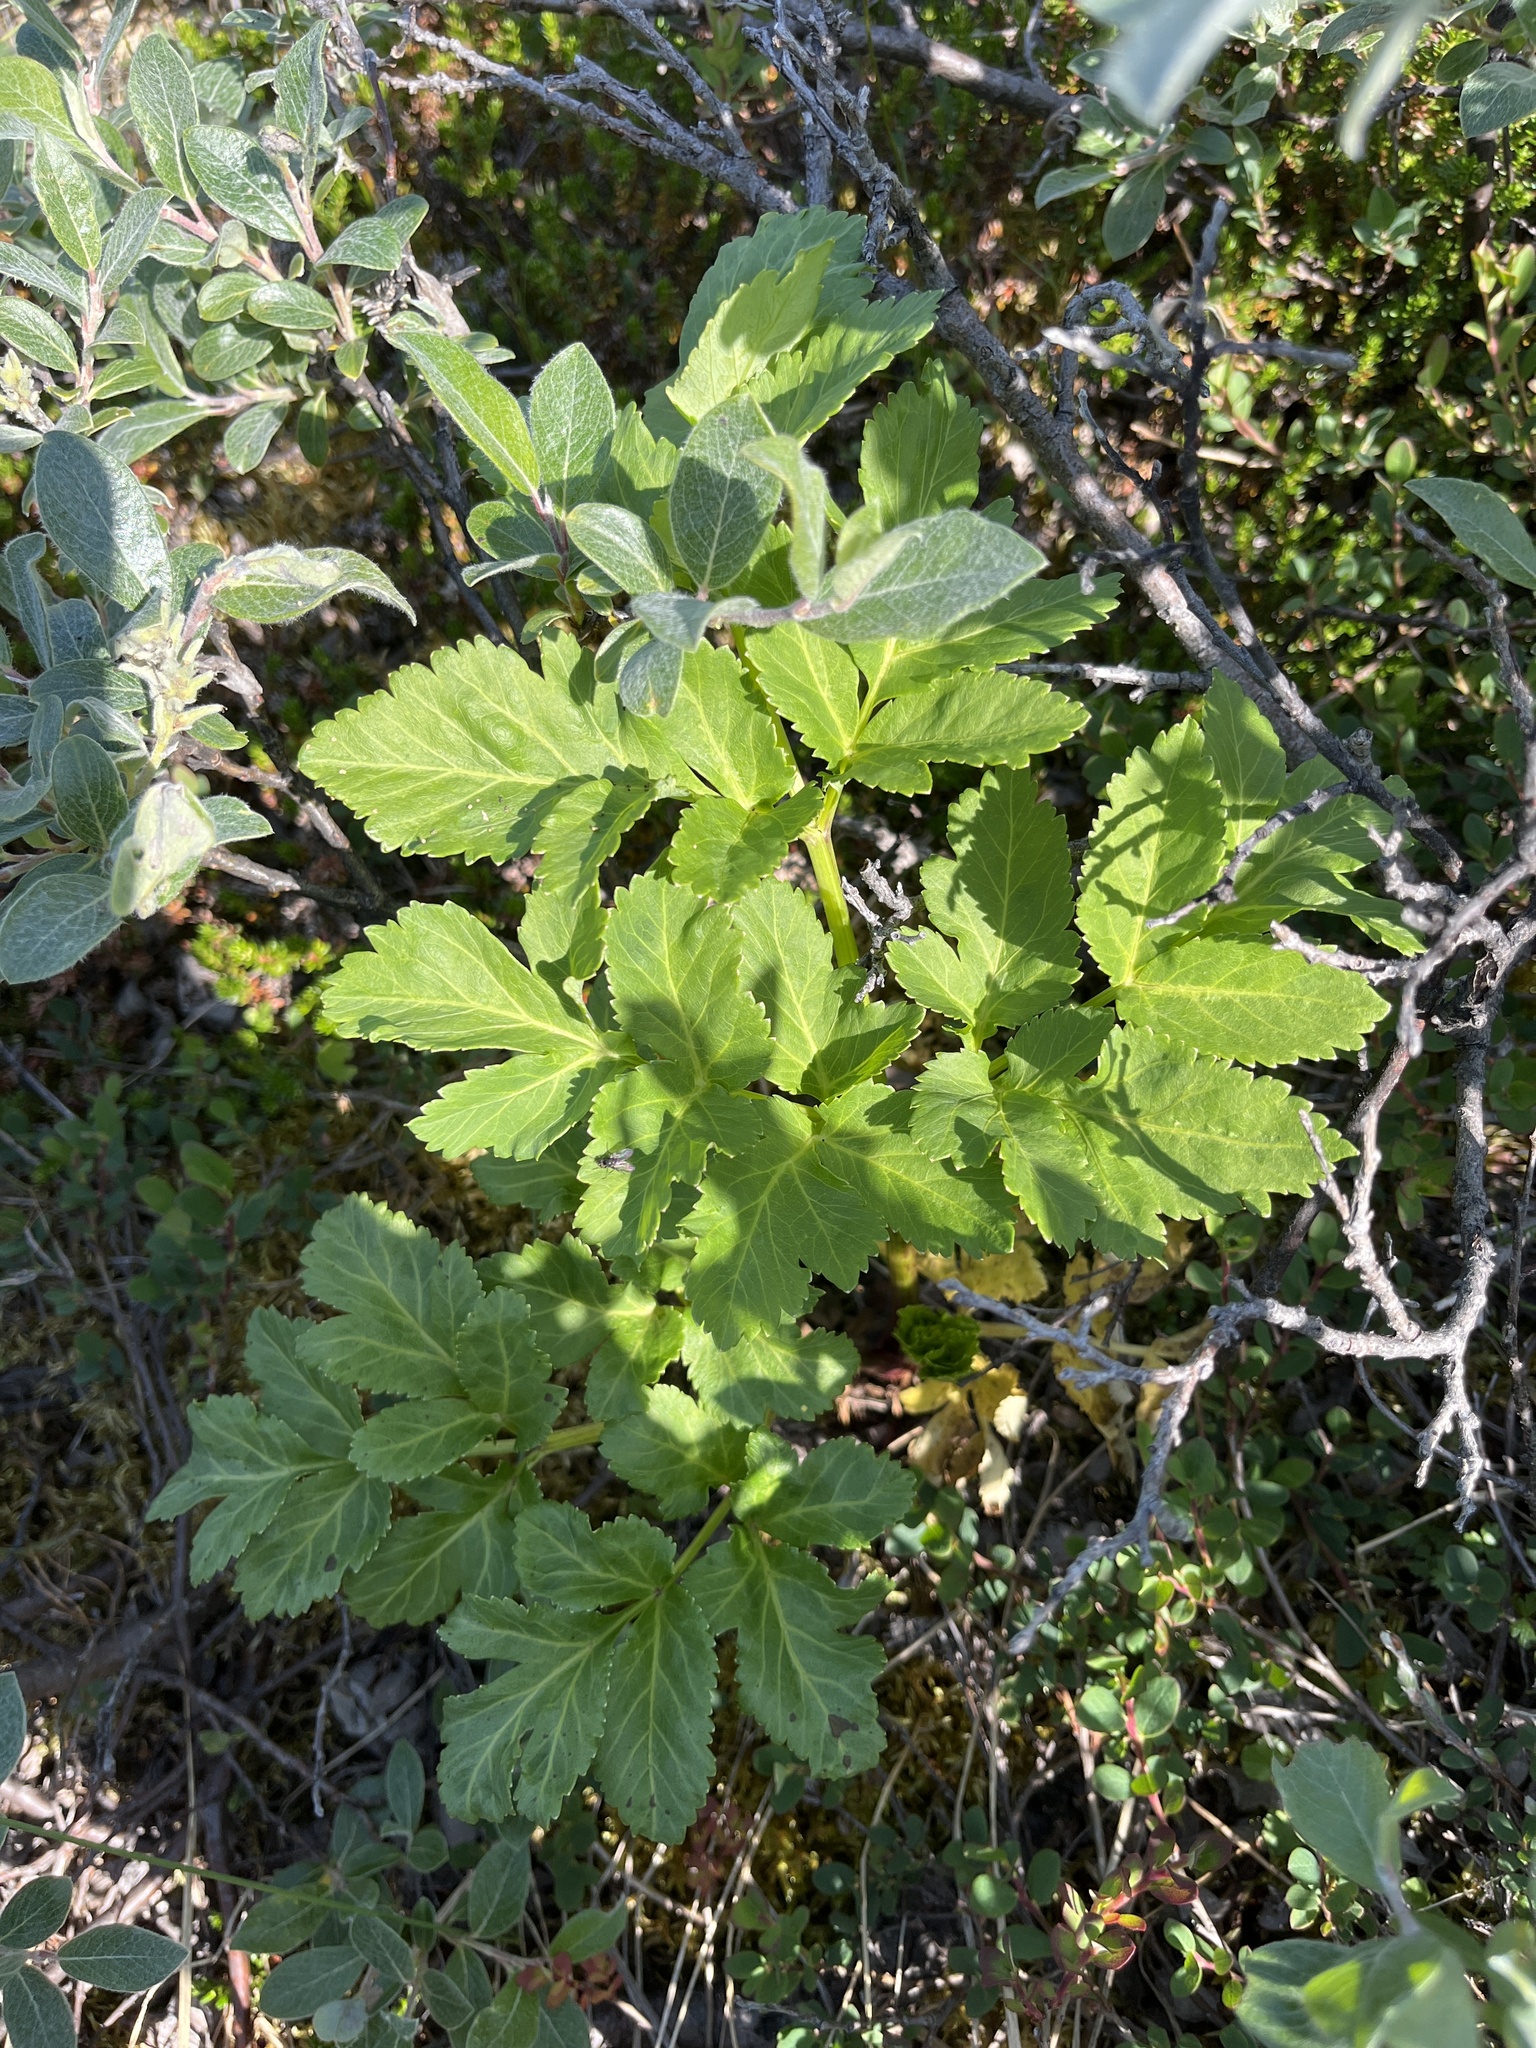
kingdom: Plantae
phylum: Tracheophyta
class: Magnoliopsida
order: Apiales
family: Apiaceae
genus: Angelica
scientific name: Angelica archangelica
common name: Garden angelica
